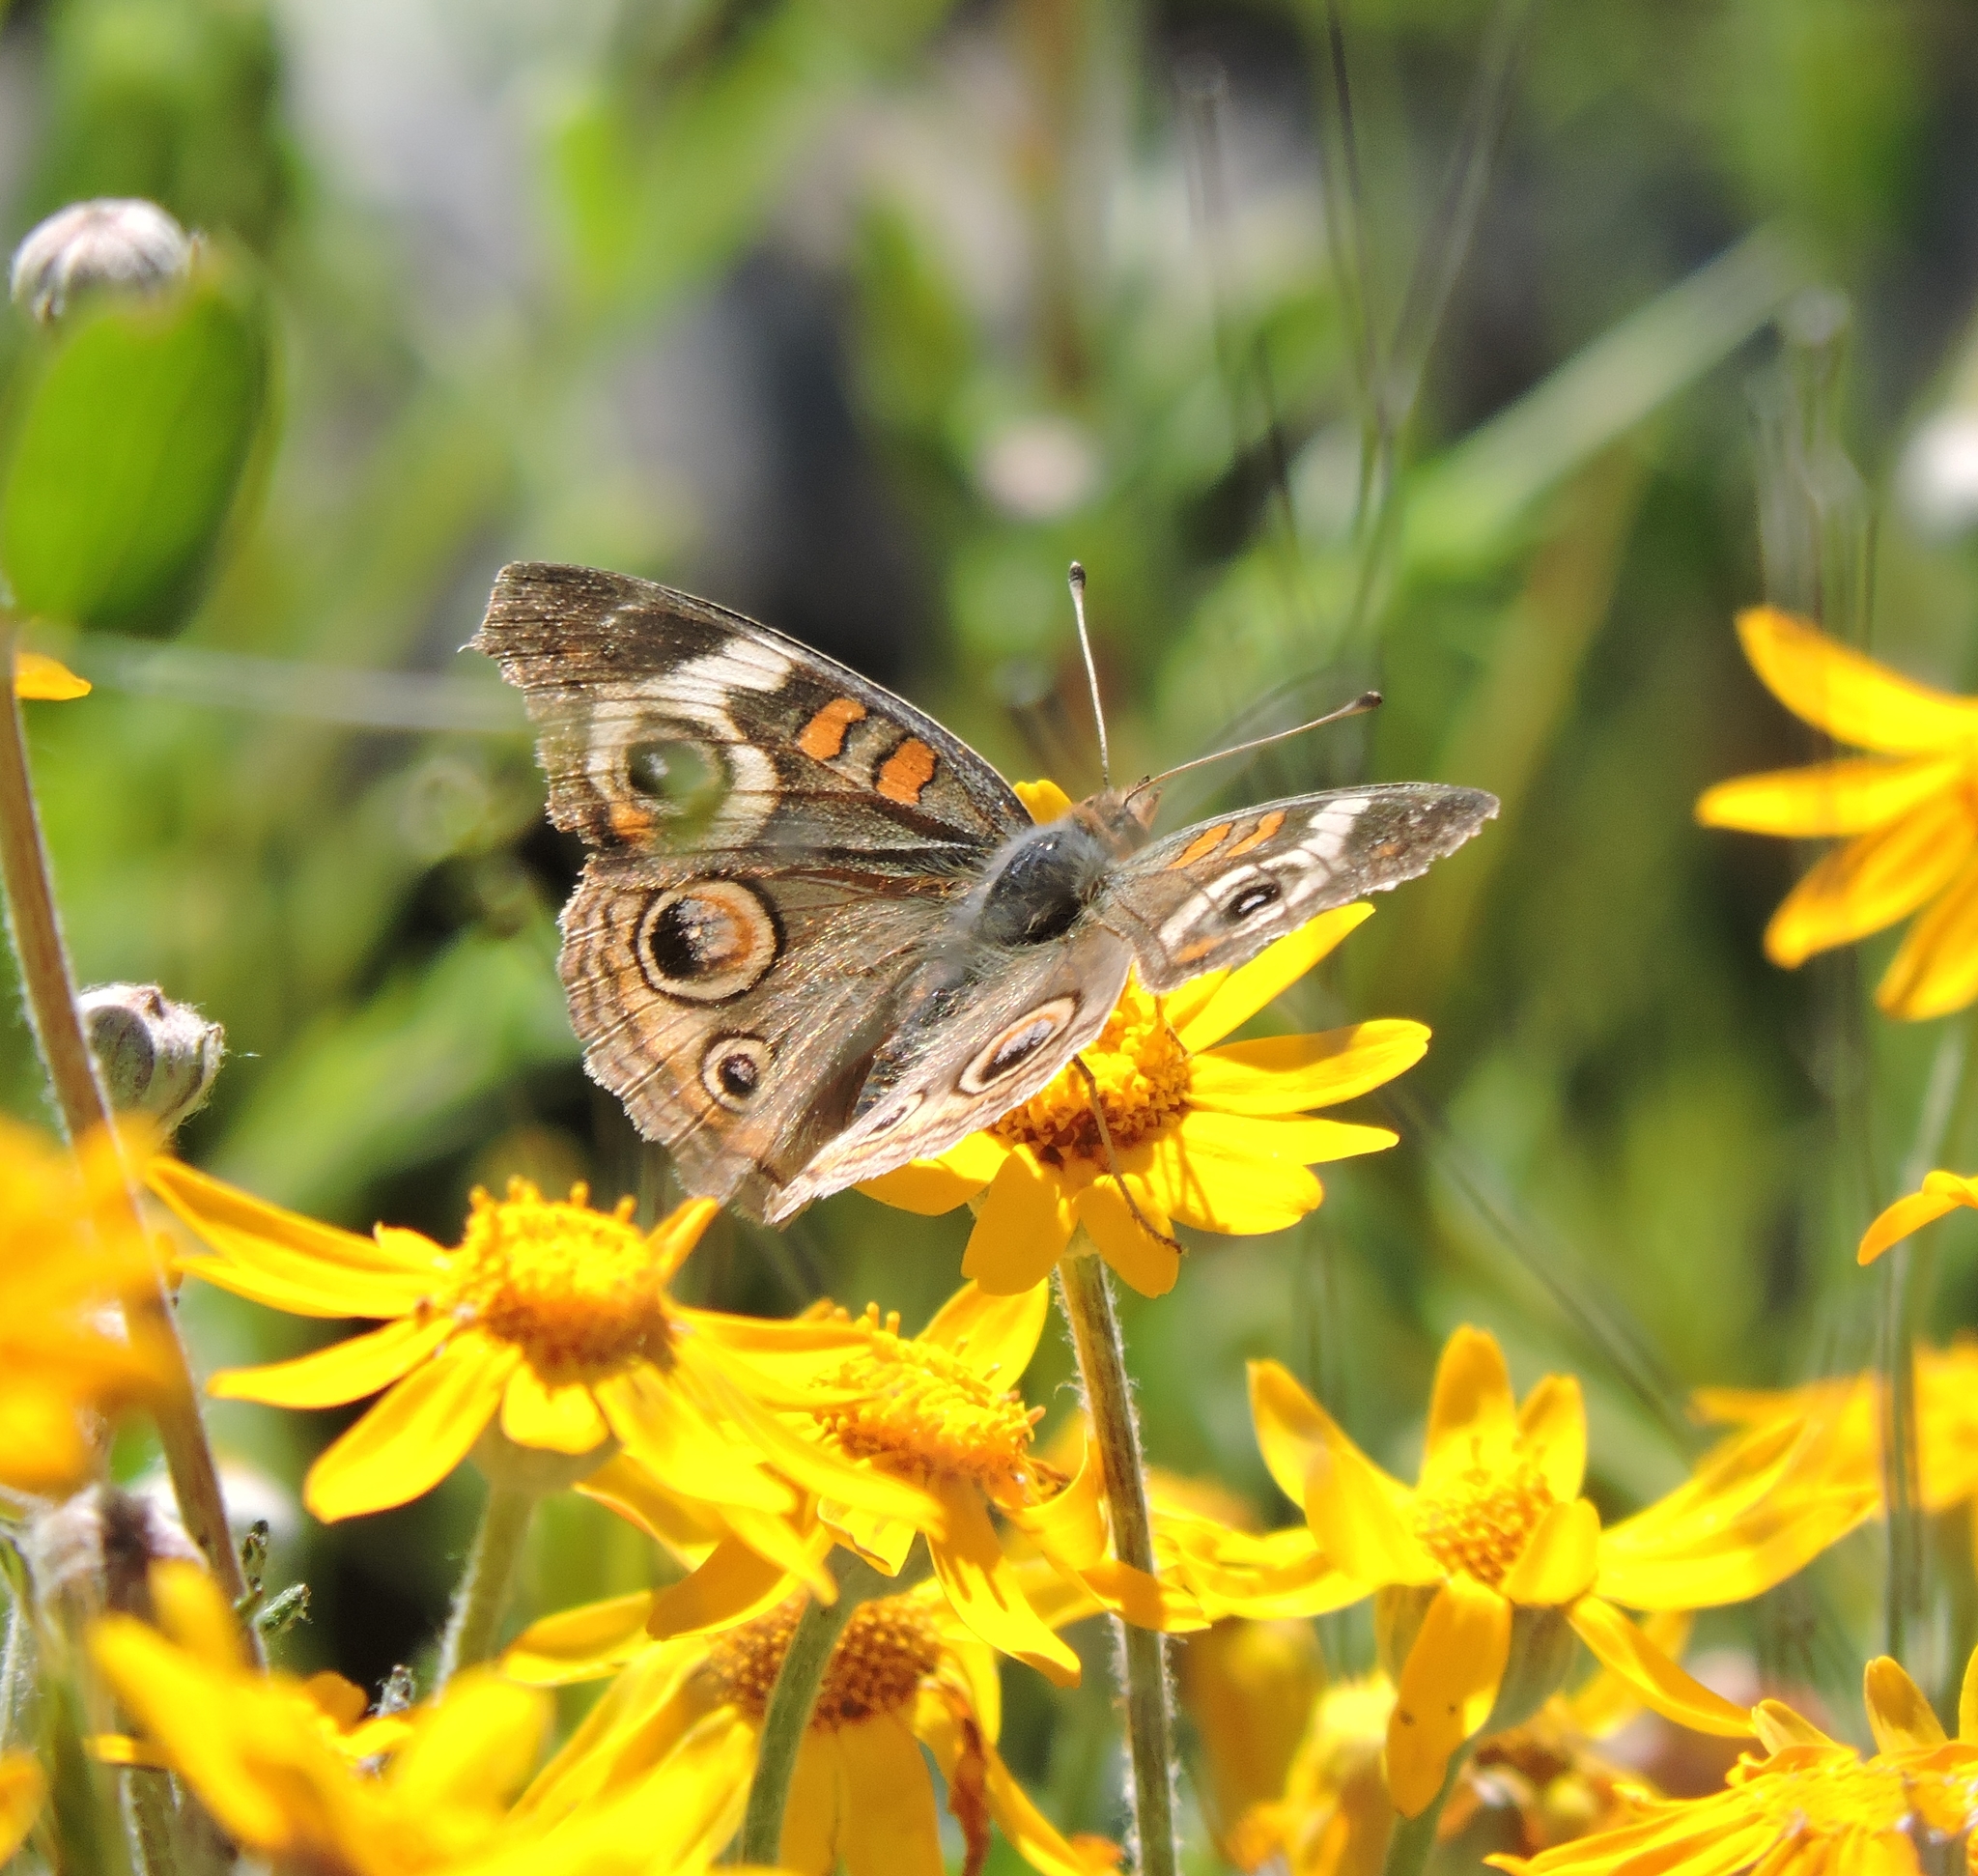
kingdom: Animalia
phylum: Arthropoda
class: Insecta
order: Lepidoptera
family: Nymphalidae
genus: Junonia
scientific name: Junonia grisea
